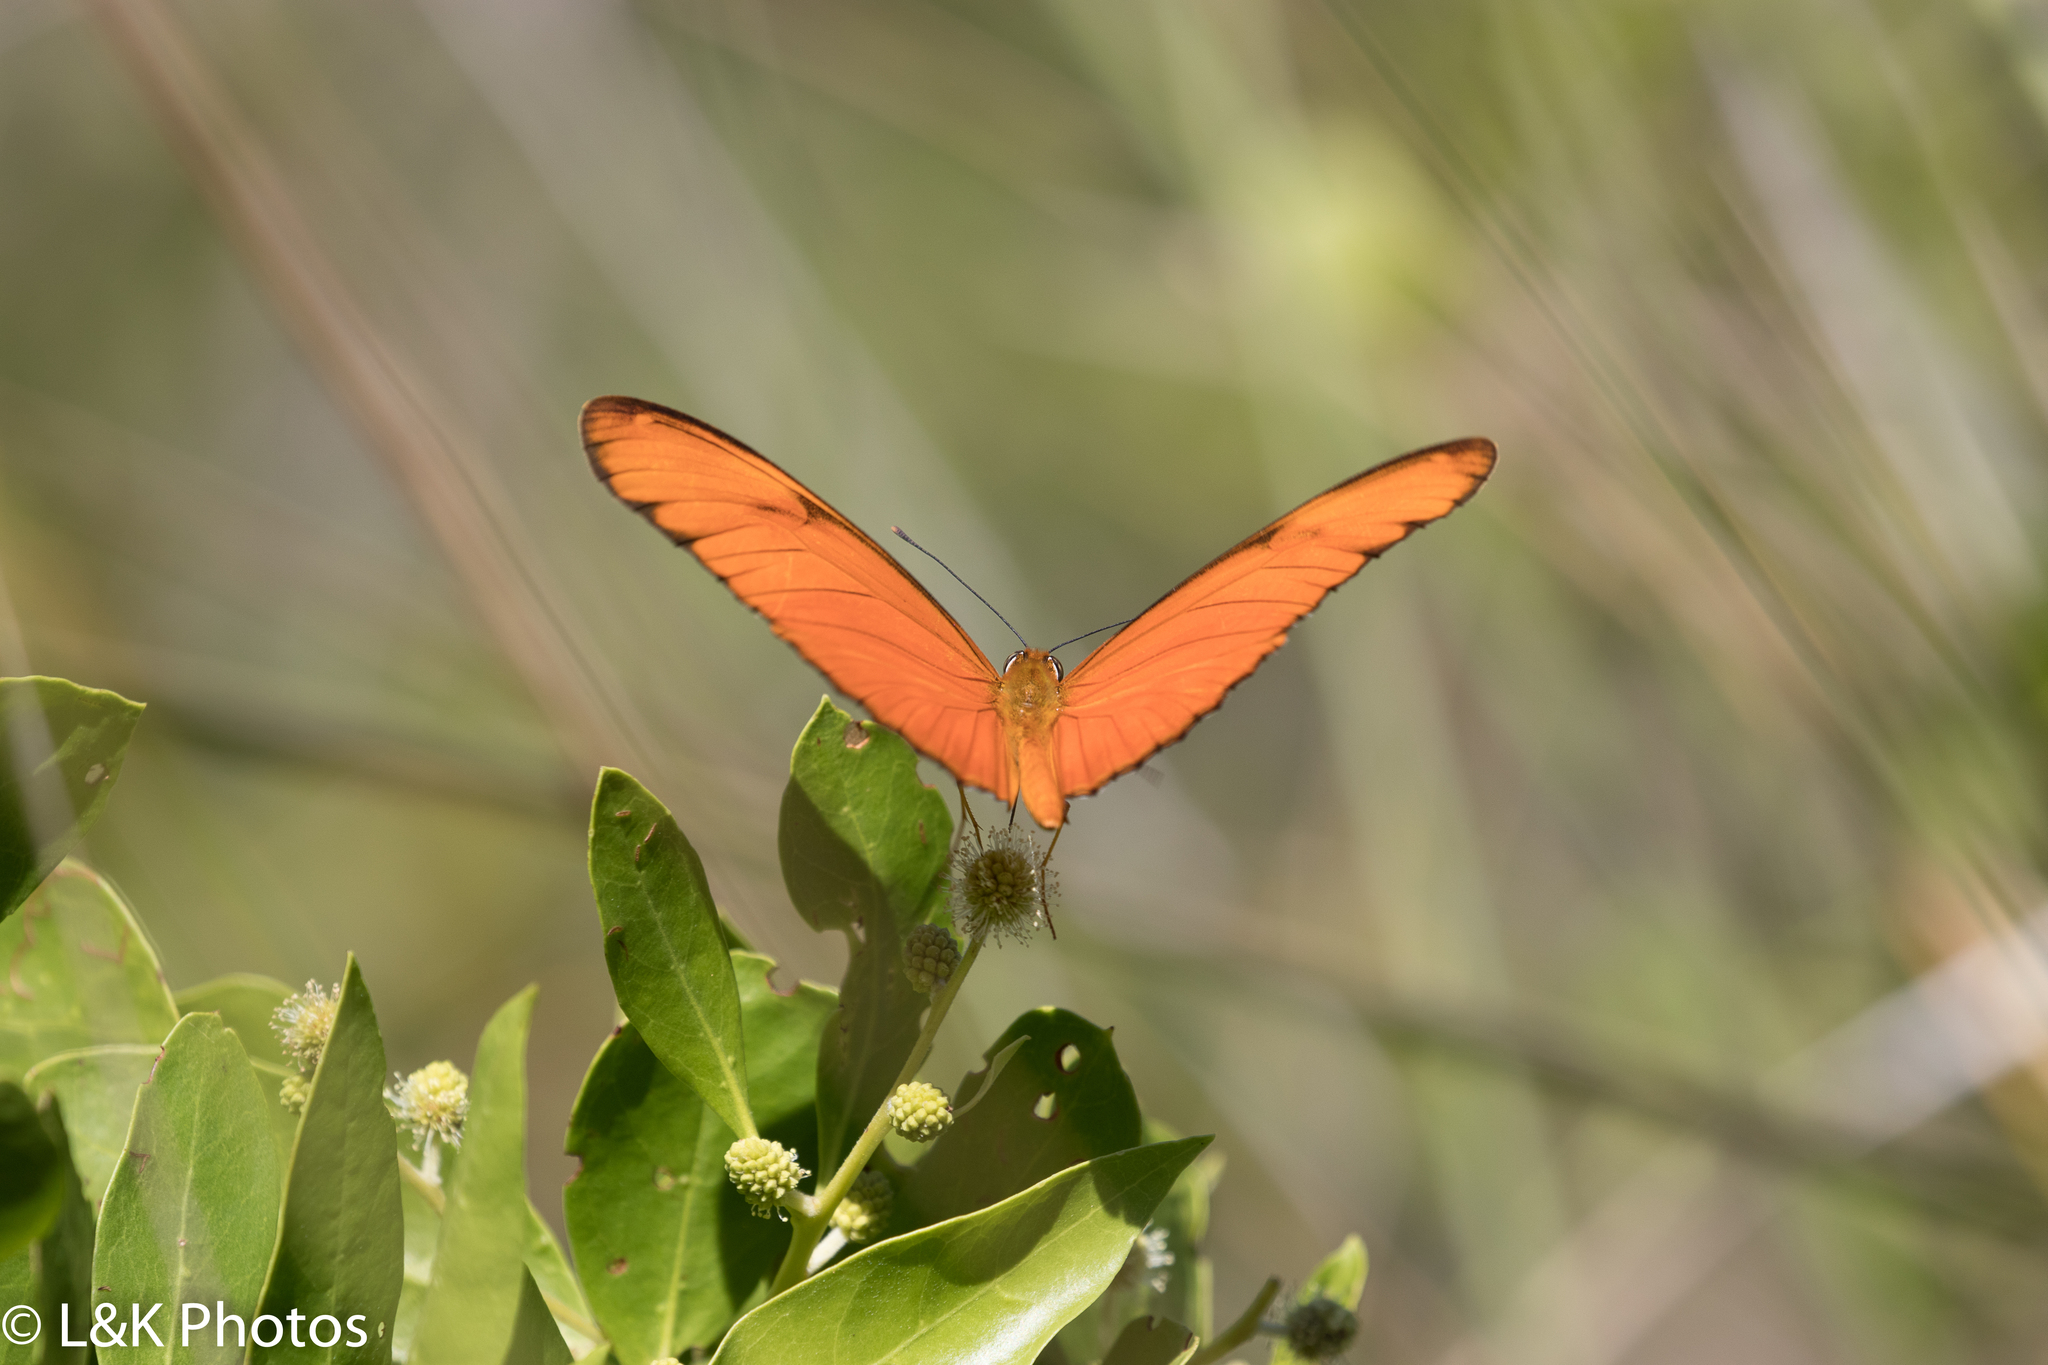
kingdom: Animalia
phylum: Arthropoda
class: Insecta
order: Lepidoptera
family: Nymphalidae
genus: Dryas
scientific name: Dryas iulia
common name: Flambeau
